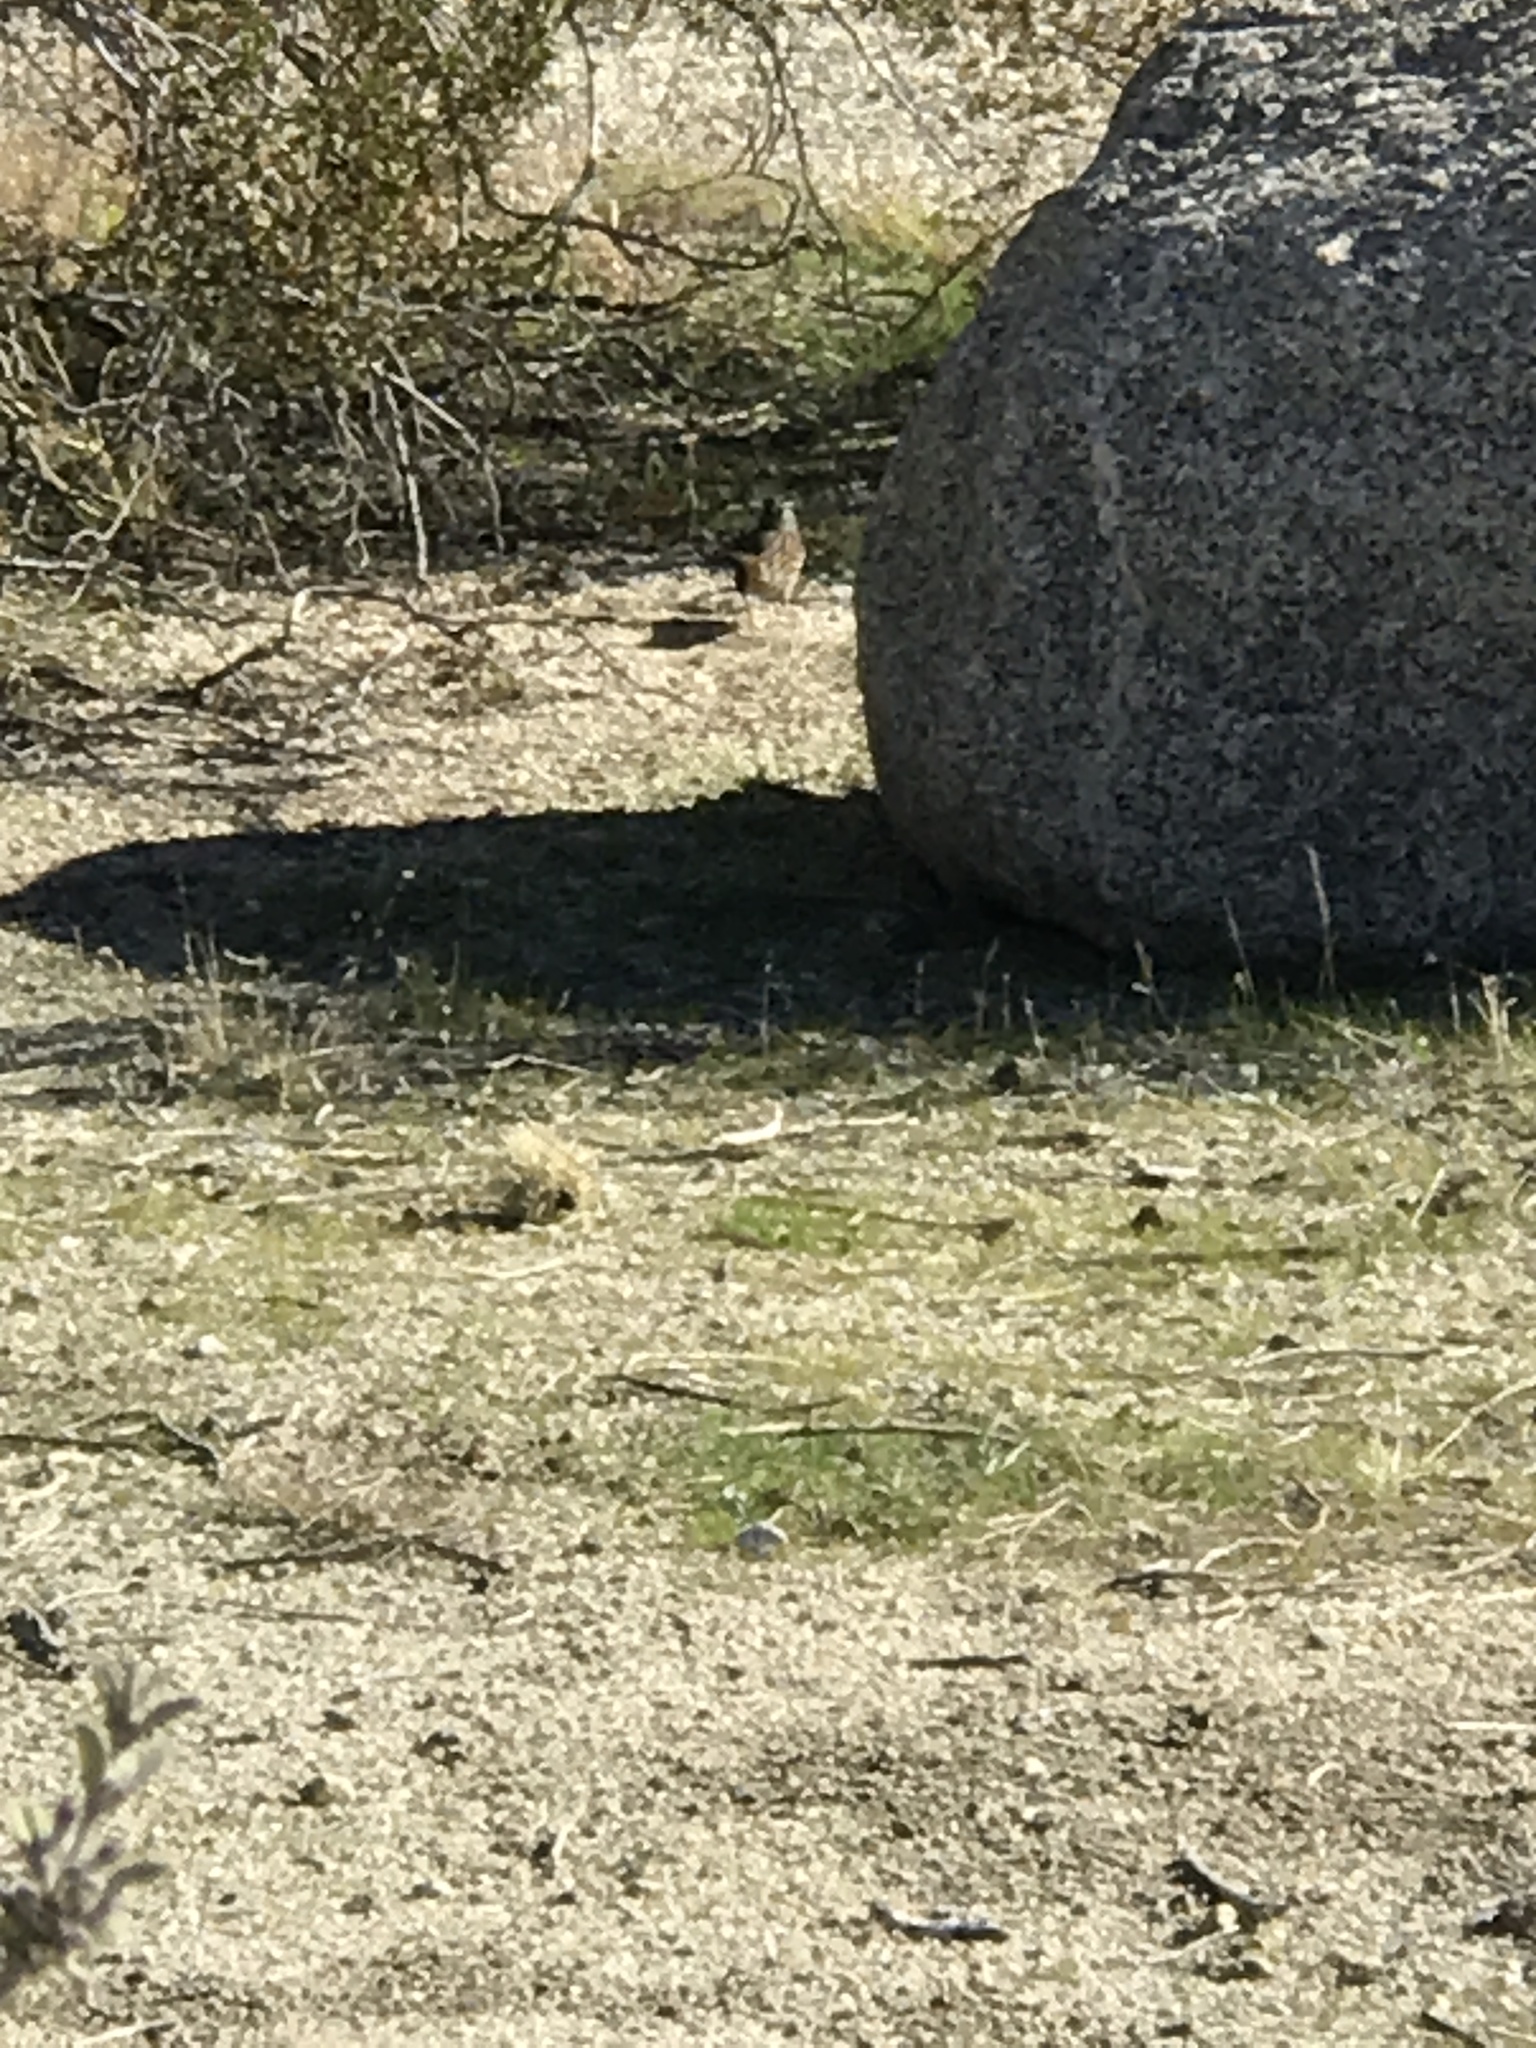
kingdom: Animalia
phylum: Chordata
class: Aves
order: Passeriformes
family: Passerellidae
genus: Zonotrichia
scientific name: Zonotrichia leucophrys
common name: White-crowned sparrow
